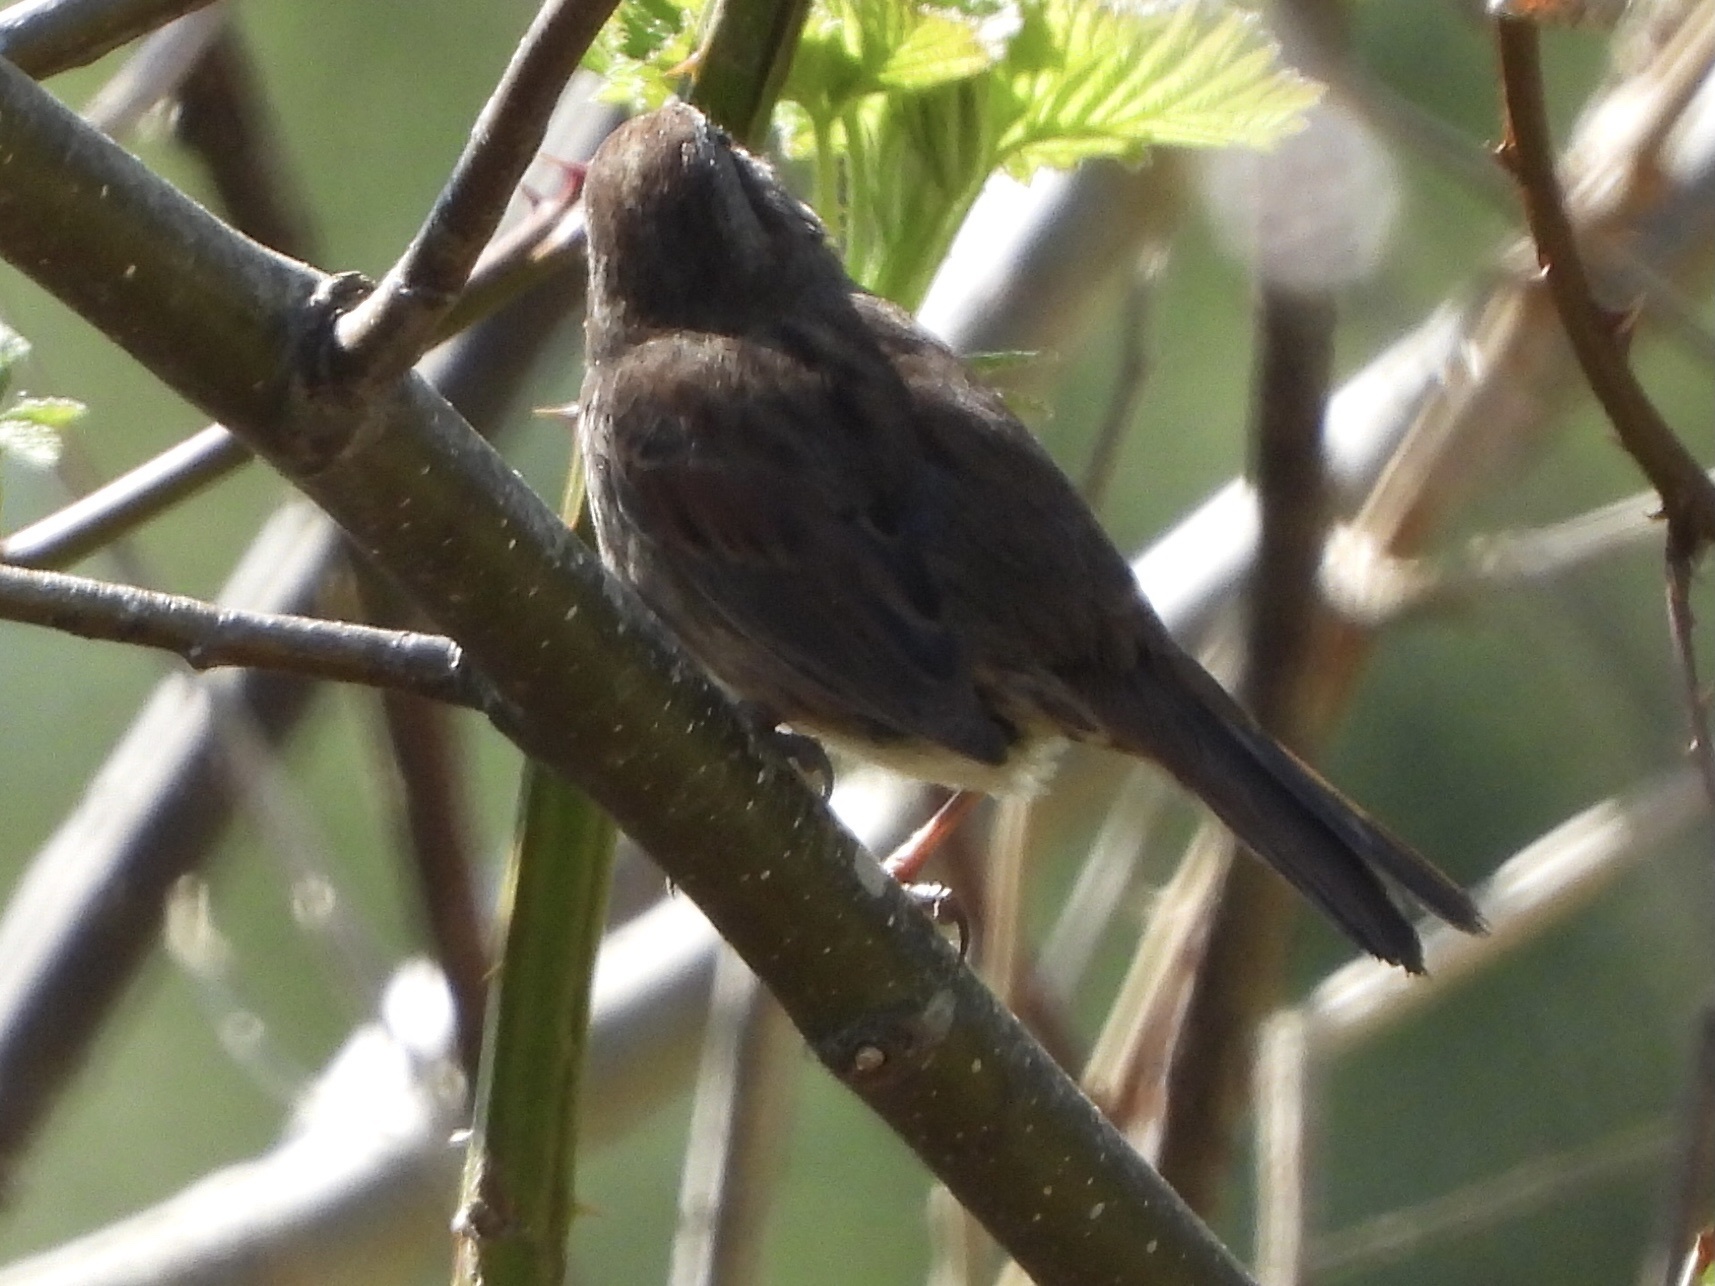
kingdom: Animalia
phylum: Chordata
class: Aves
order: Passeriformes
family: Passerellidae
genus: Melospiza
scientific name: Melospiza melodia
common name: Song sparrow
